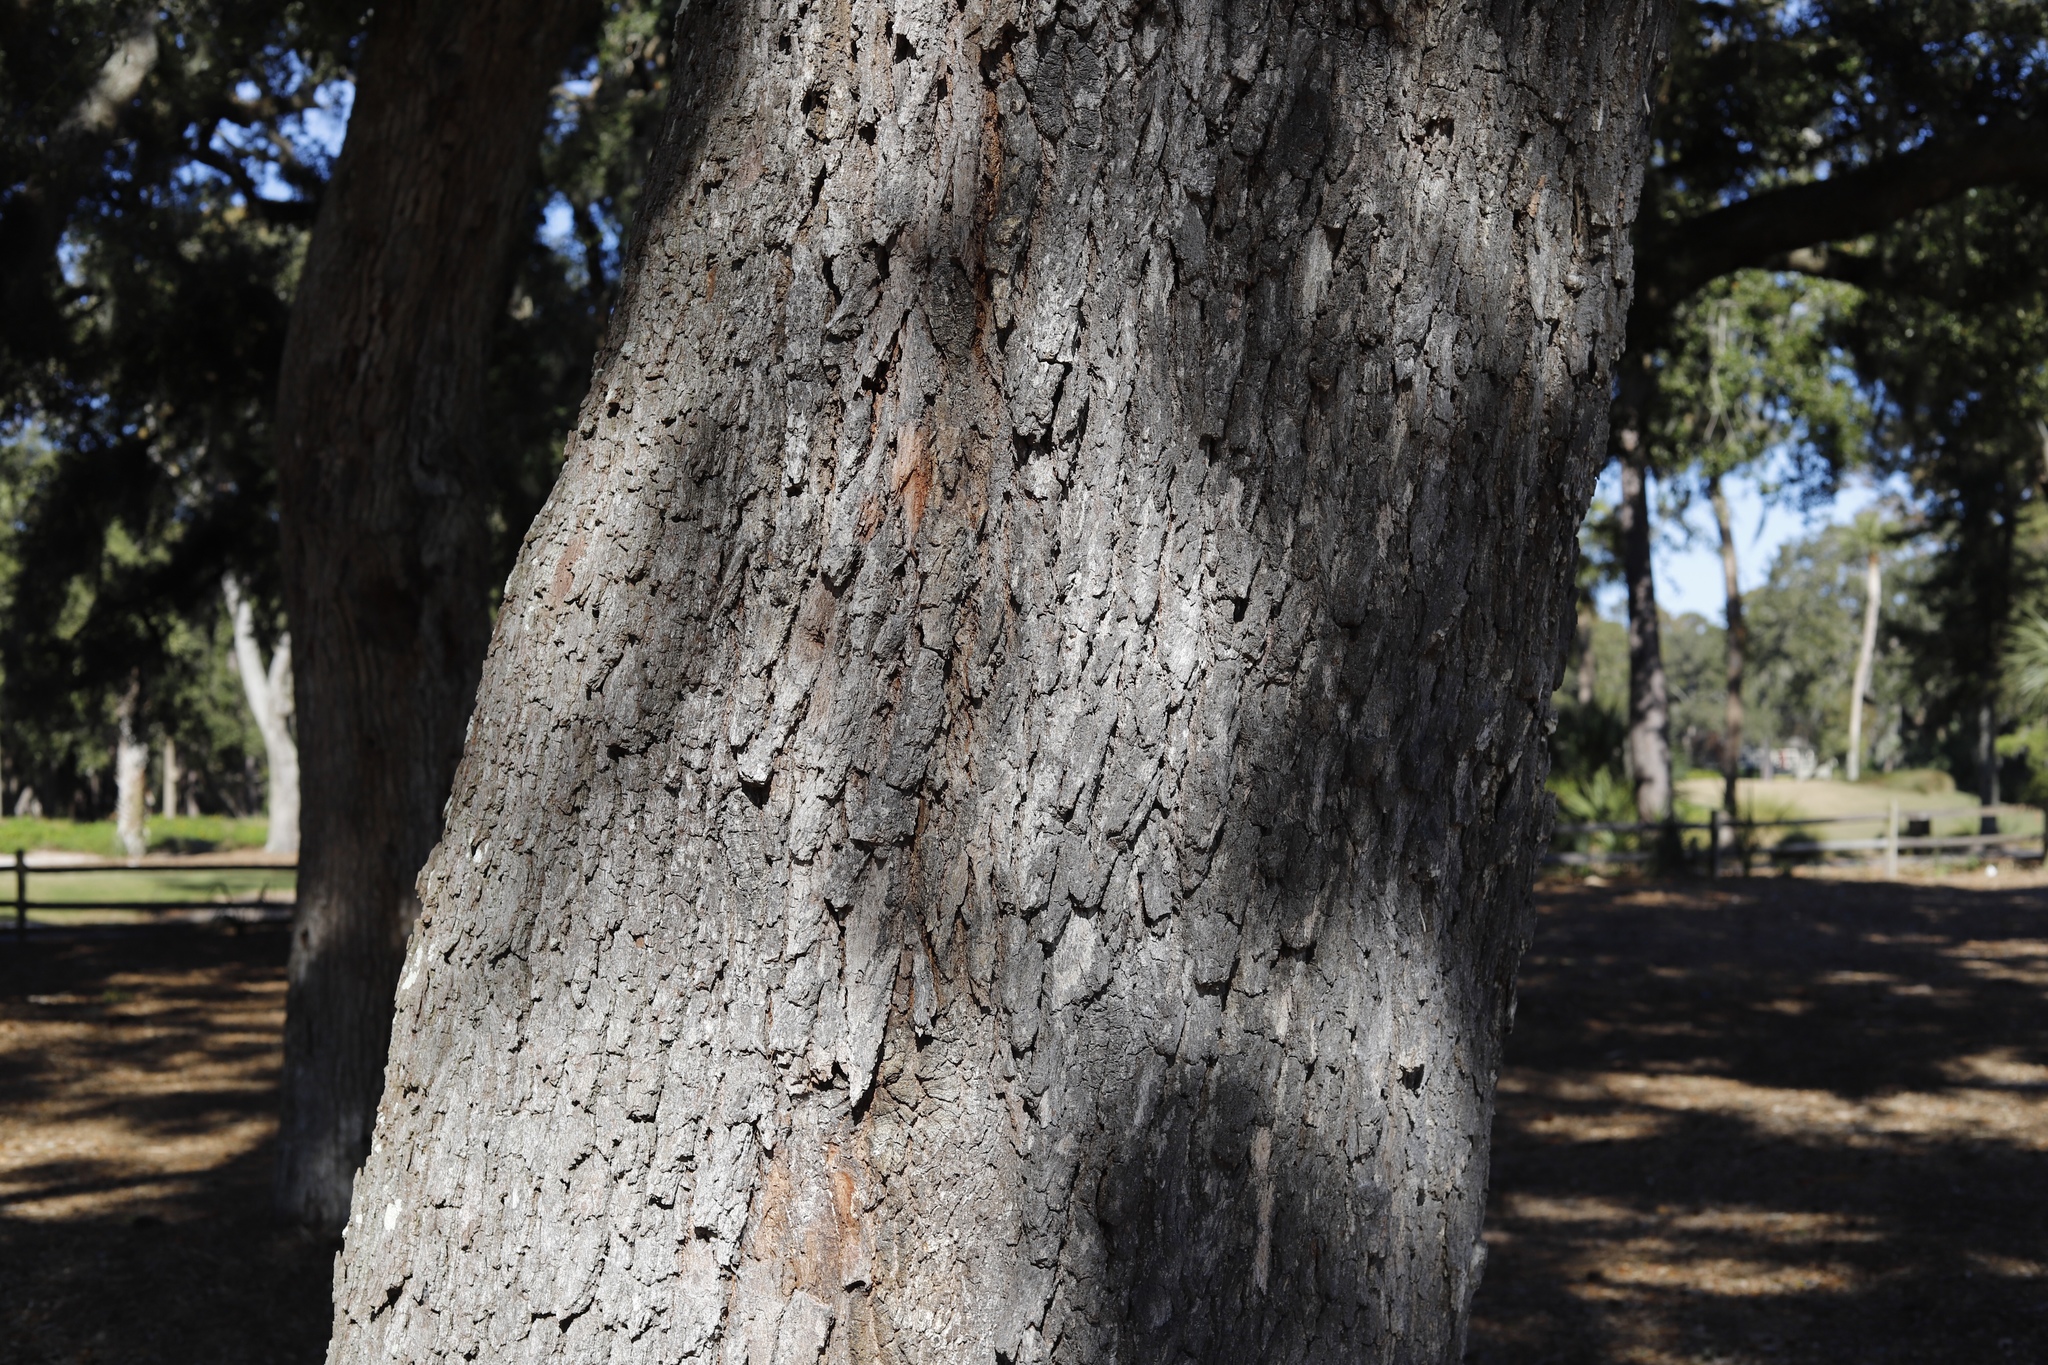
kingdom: Plantae
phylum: Tracheophyta
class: Magnoliopsida
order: Fagales
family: Fagaceae
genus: Quercus
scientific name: Quercus virginiana
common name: Southern live oak
